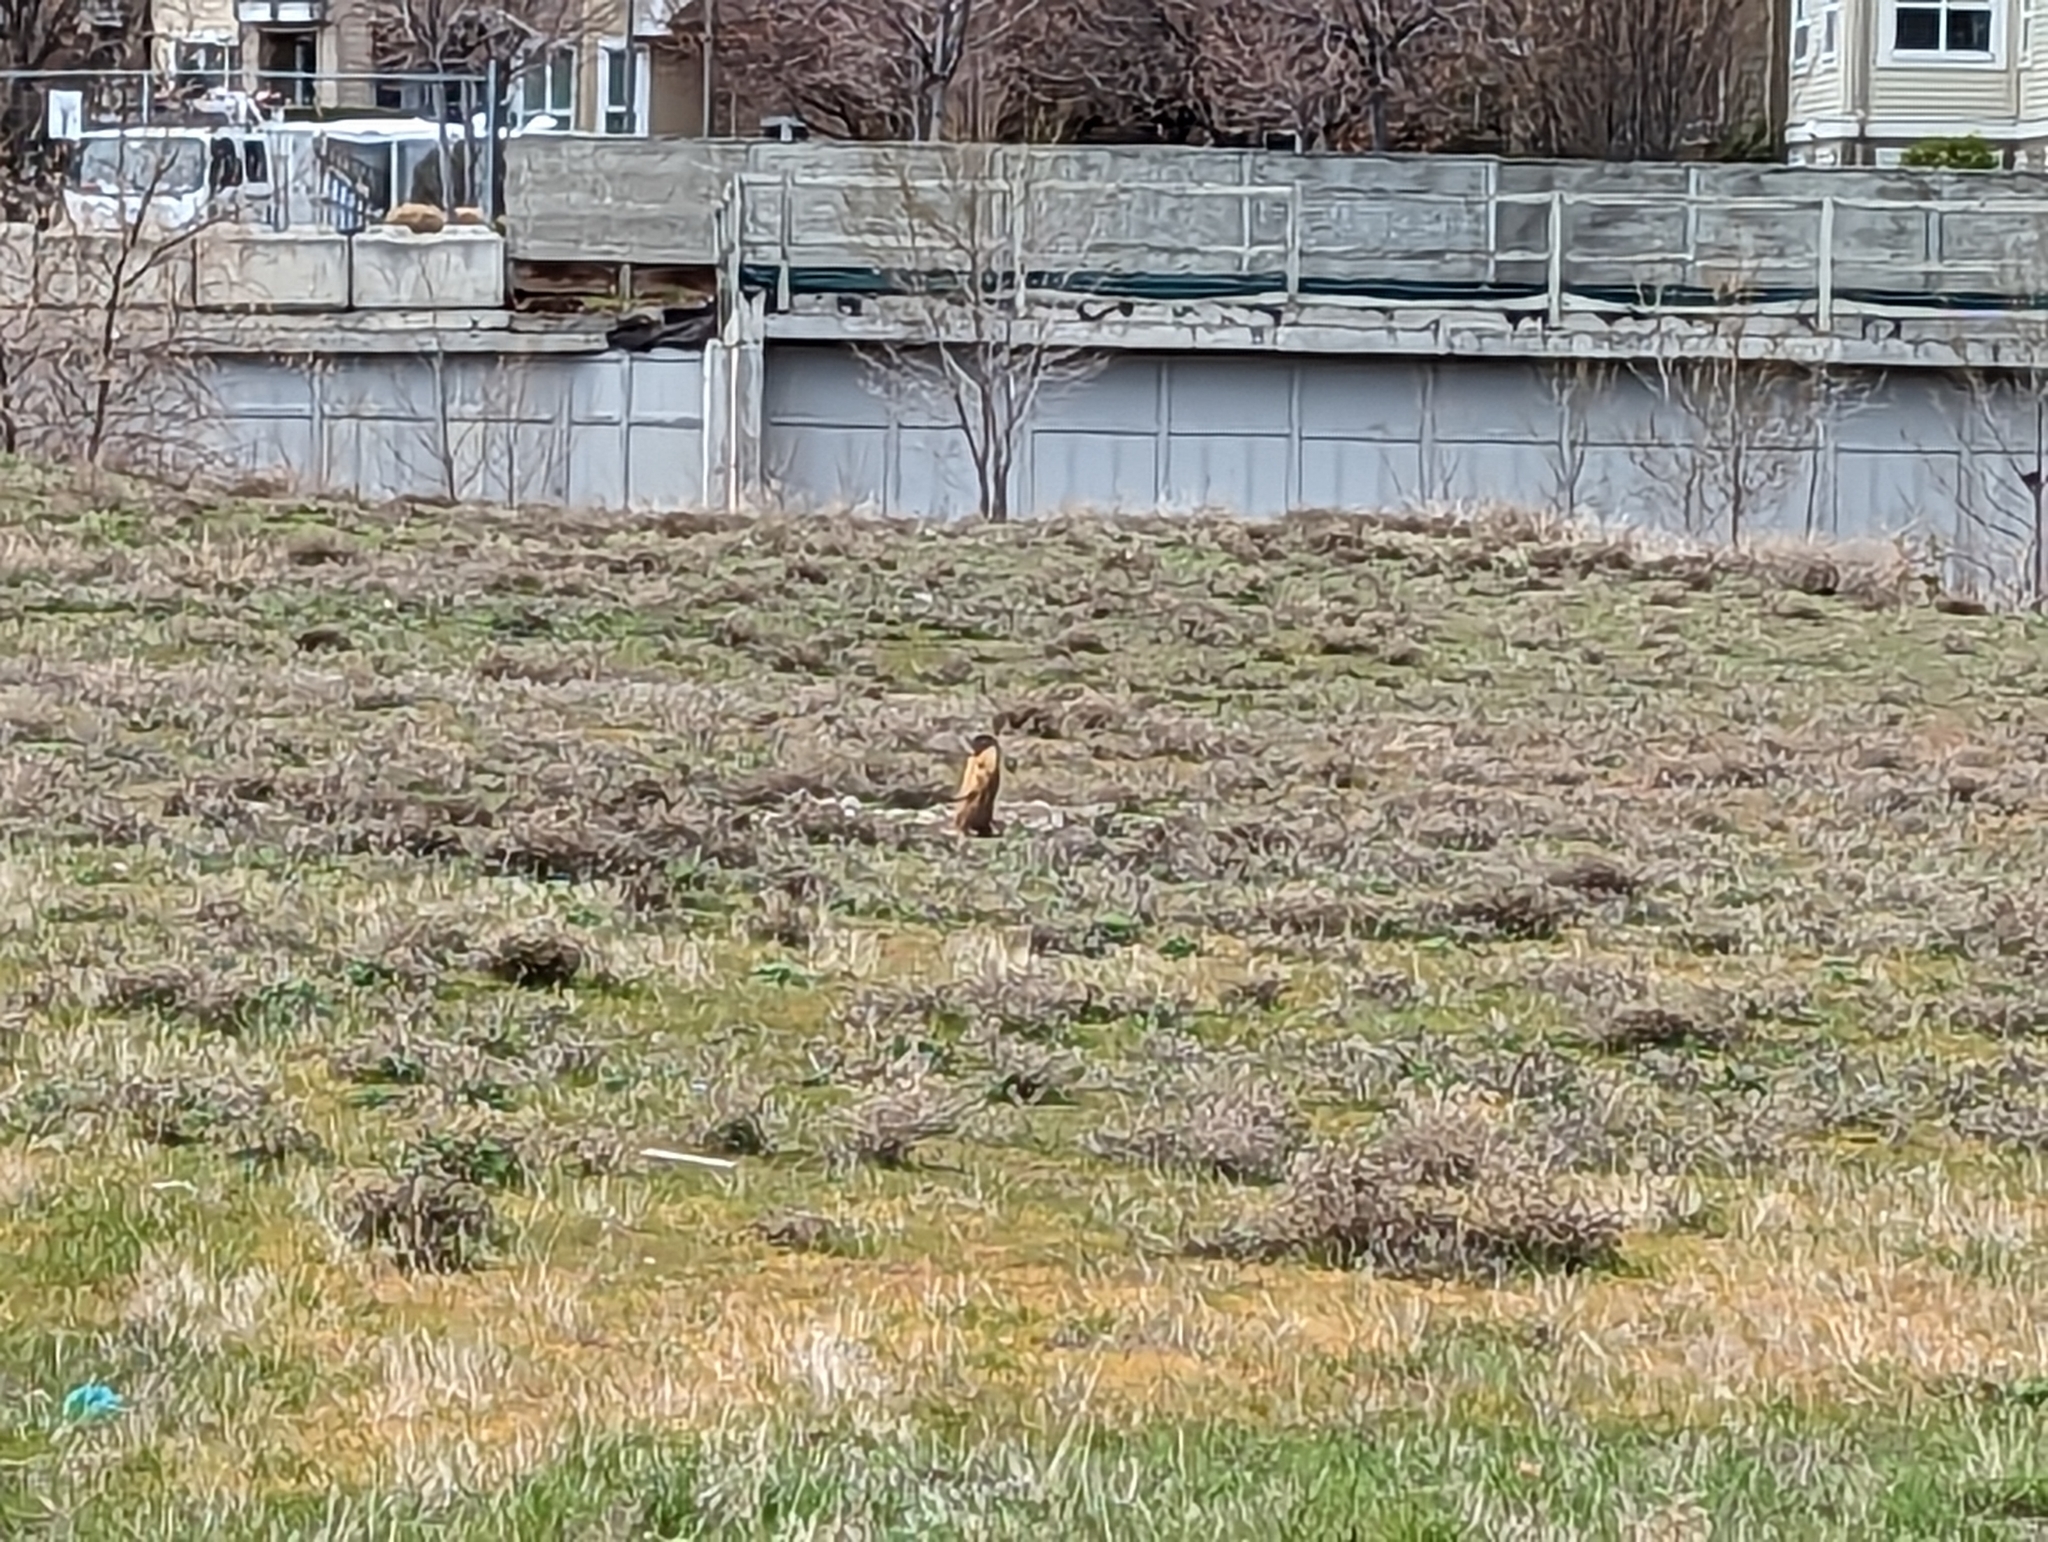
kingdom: Animalia
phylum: Chordata
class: Mammalia
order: Rodentia
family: Sciuridae
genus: Marmota
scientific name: Marmota flaviventris
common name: Yellow-bellied marmot
